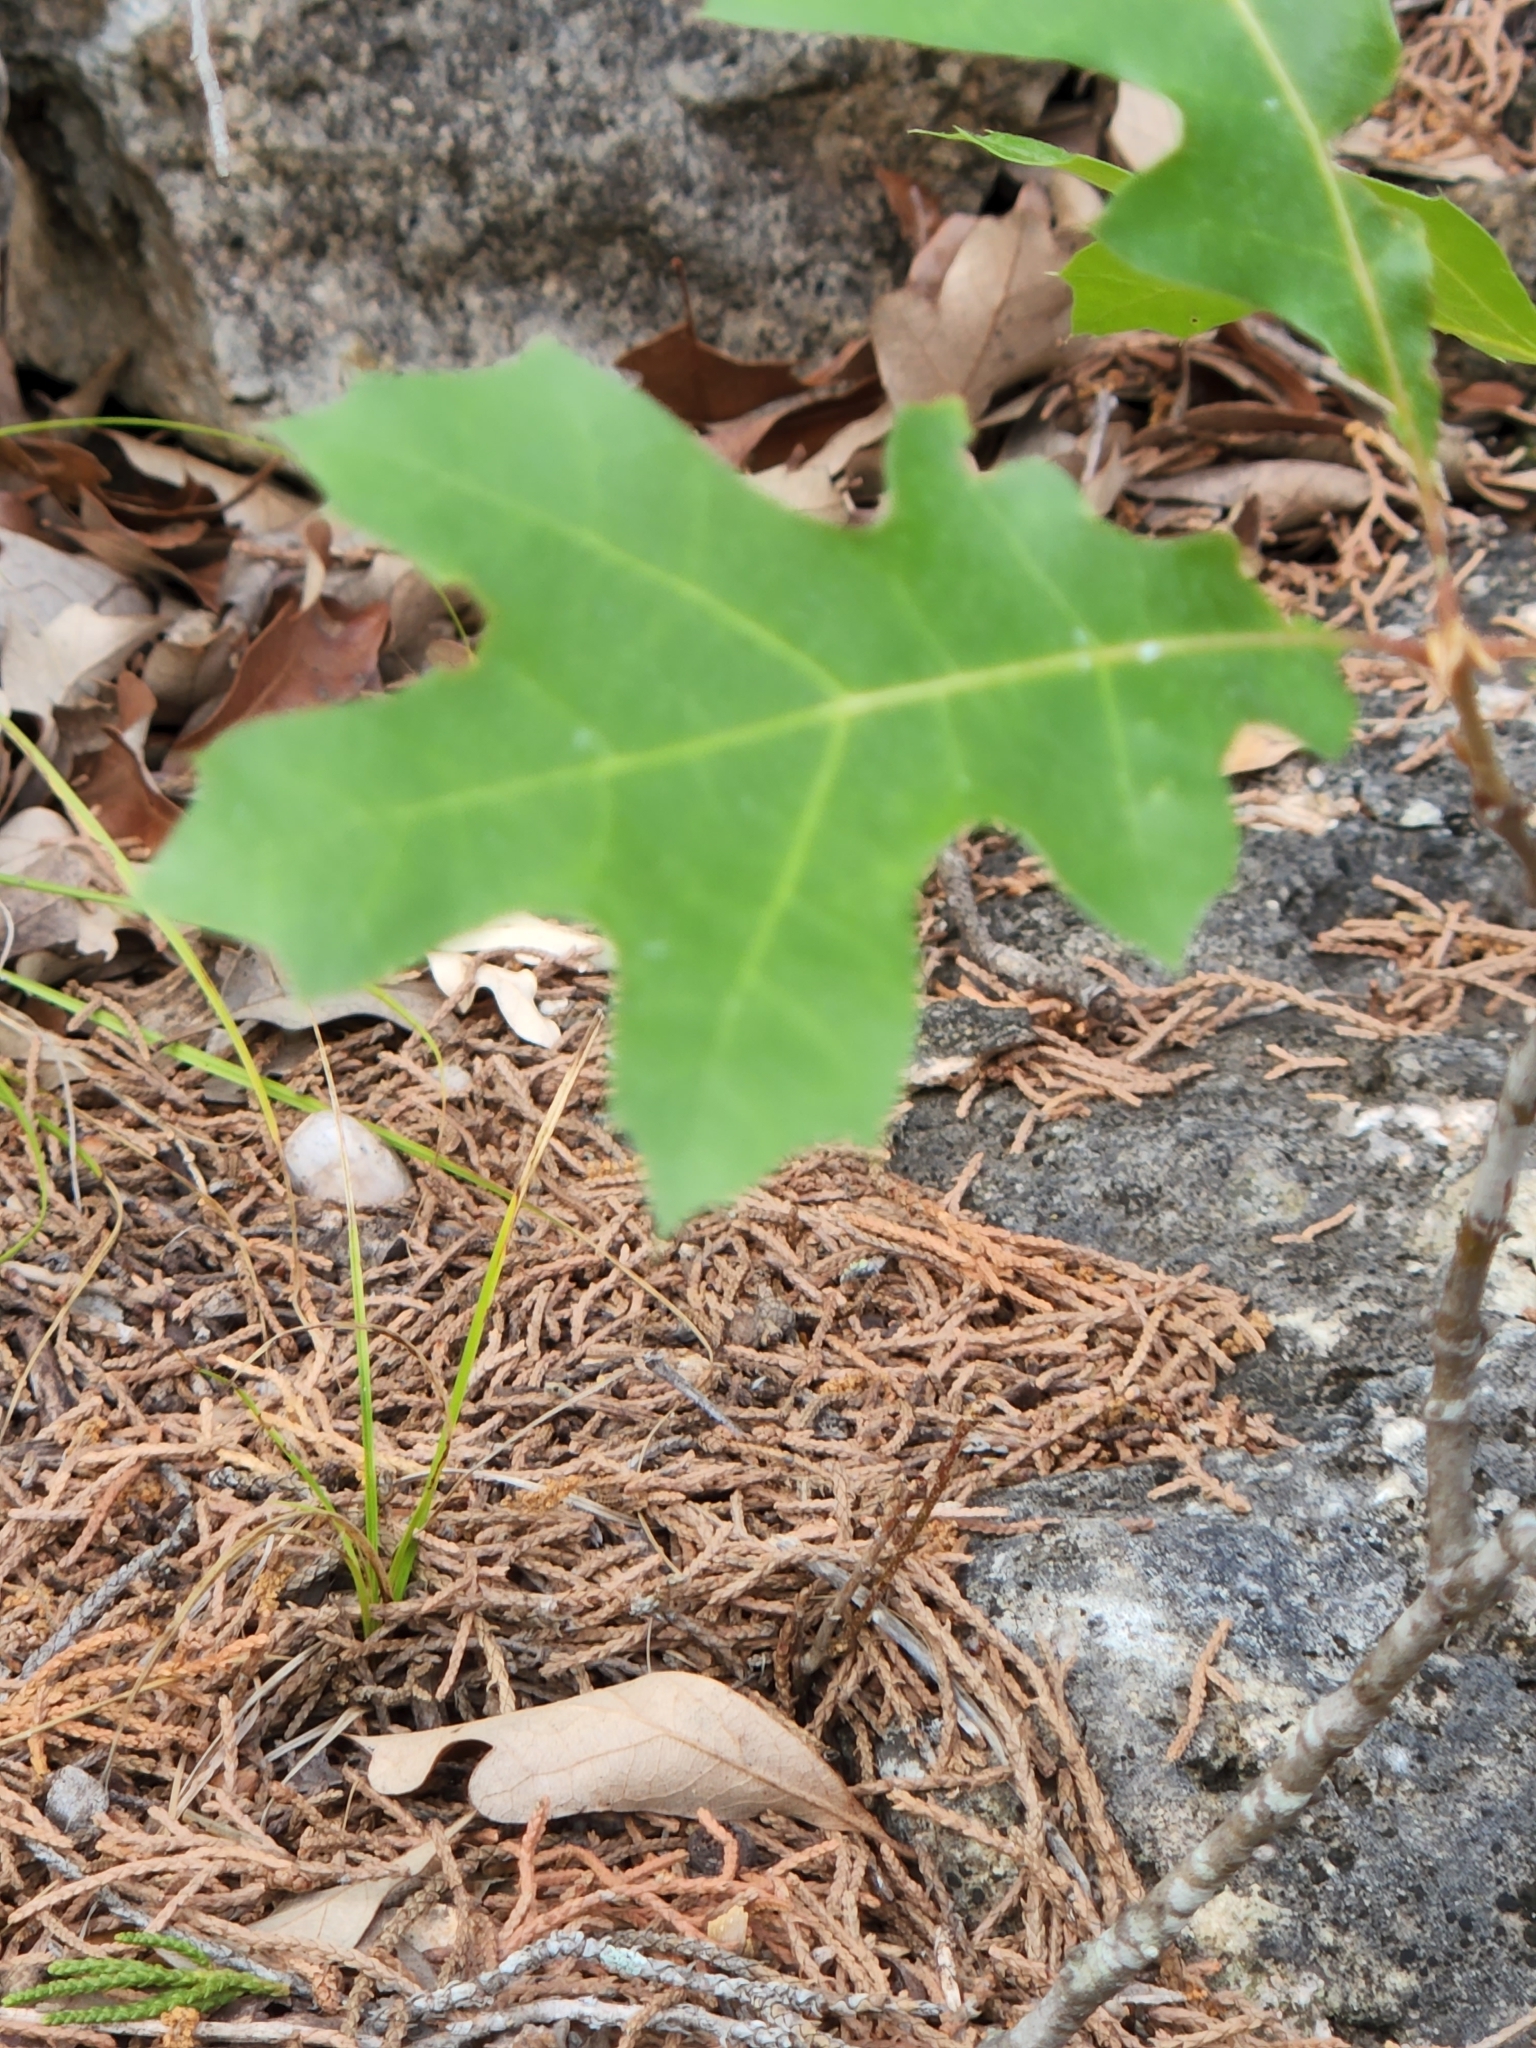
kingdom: Plantae
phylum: Tracheophyta
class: Magnoliopsida
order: Fagales
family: Fagaceae
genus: Quercus
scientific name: Quercus buckleyi
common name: Buckley oak
